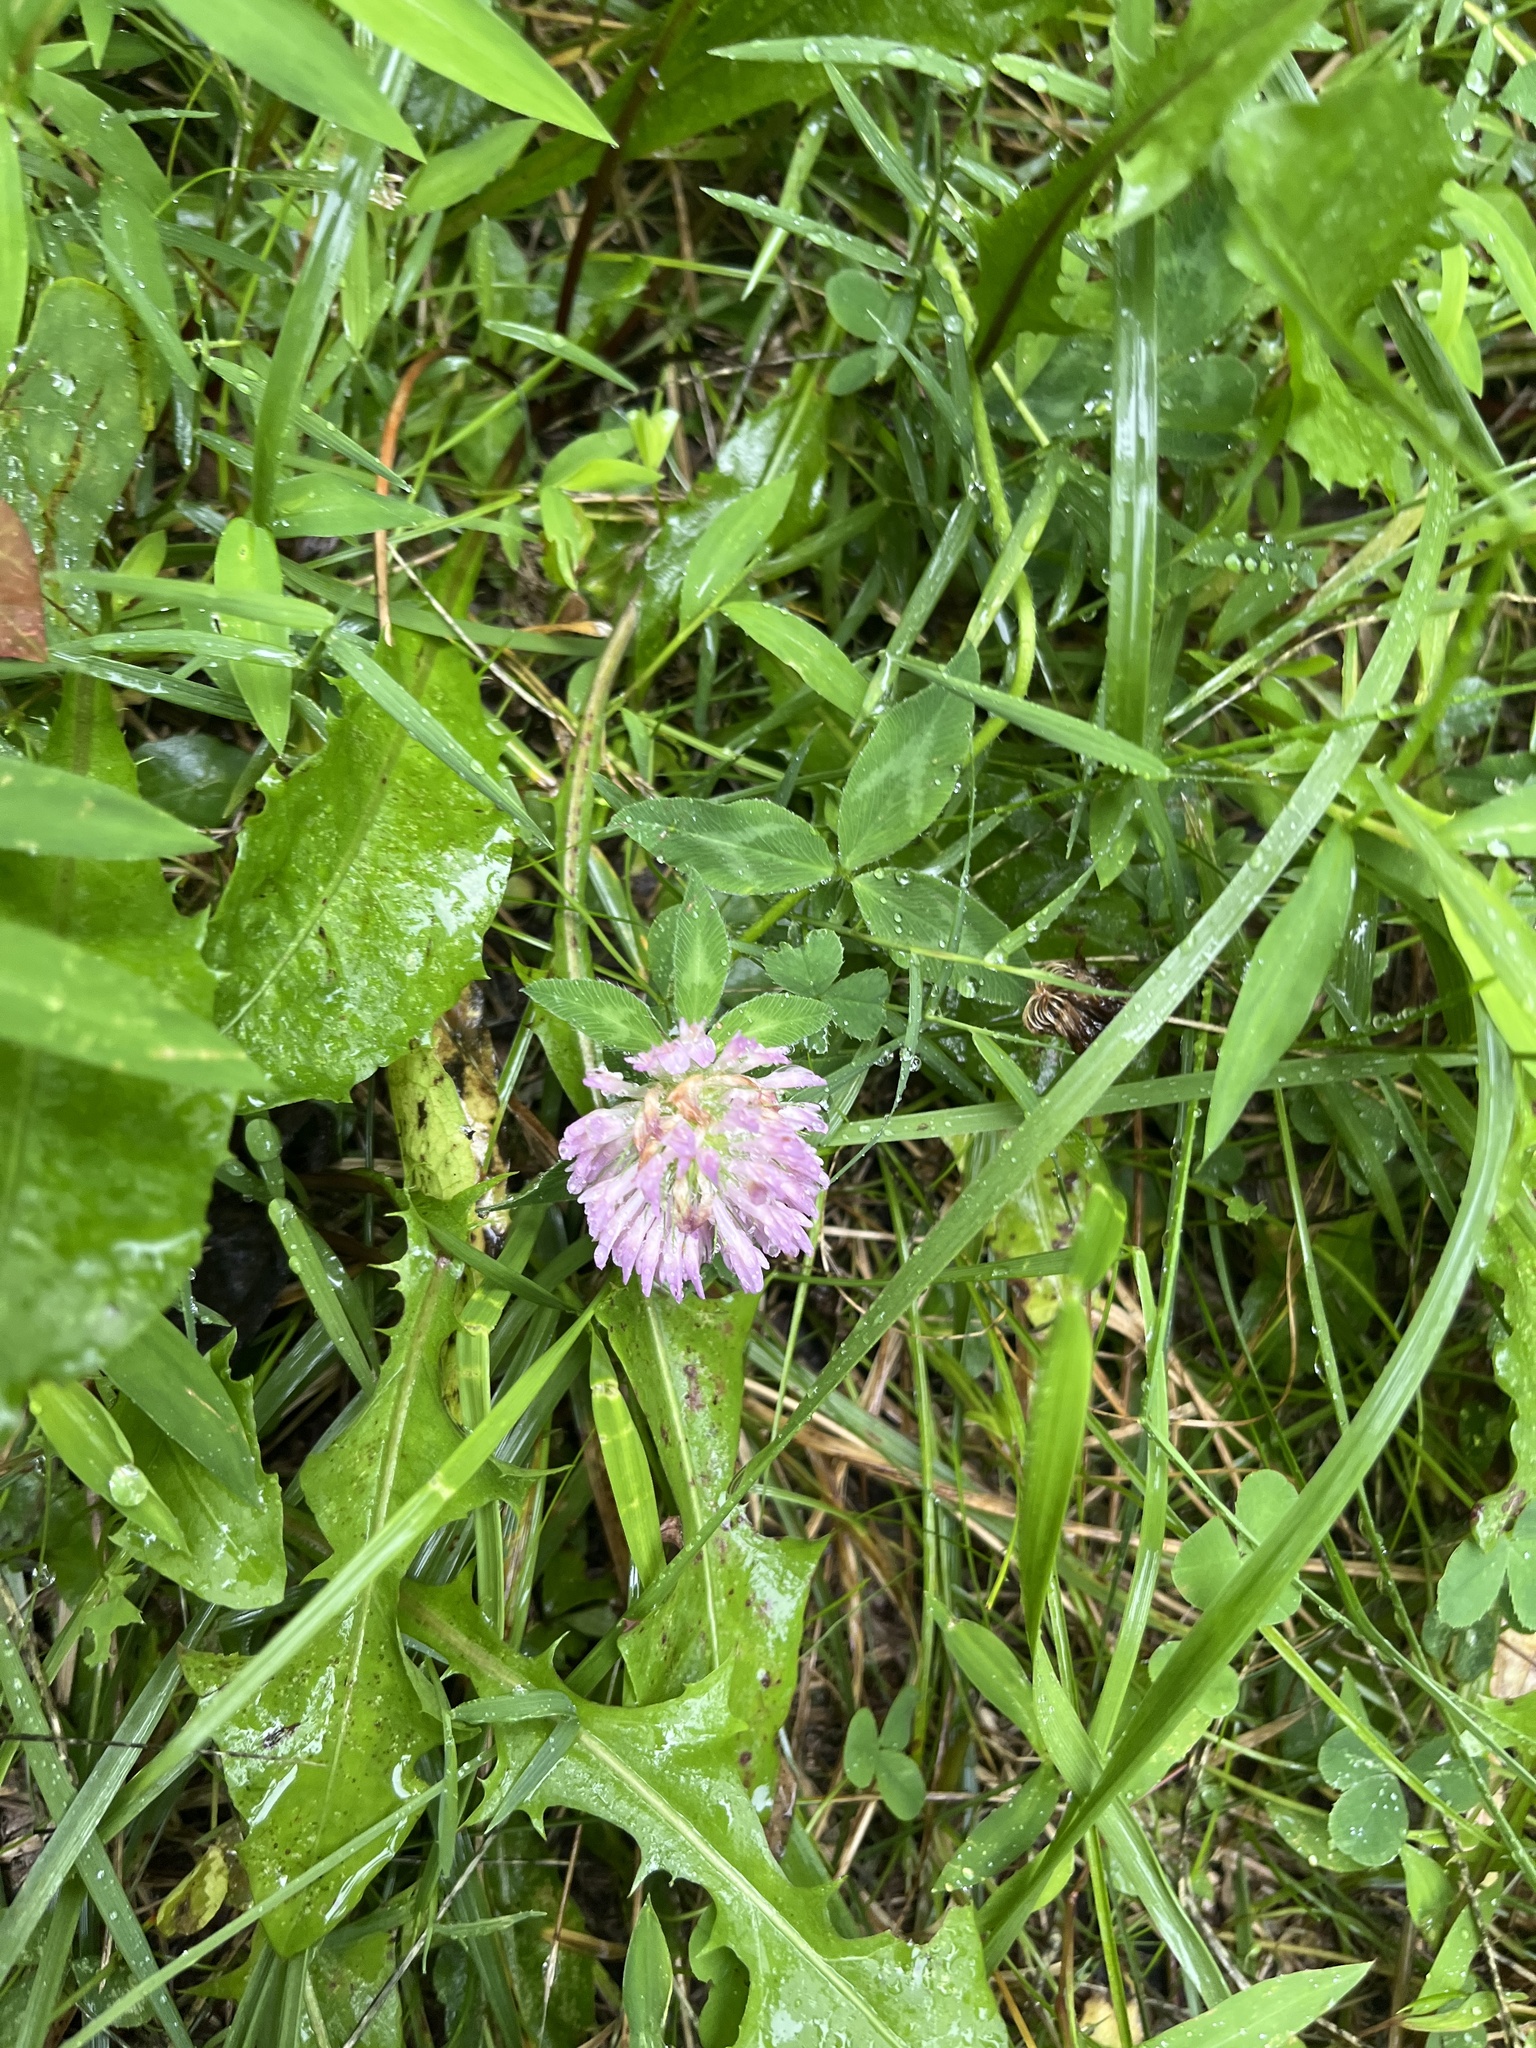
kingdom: Plantae
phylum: Tracheophyta
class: Magnoliopsida
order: Fabales
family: Fabaceae
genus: Trifolium
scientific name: Trifolium pratense
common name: Red clover
